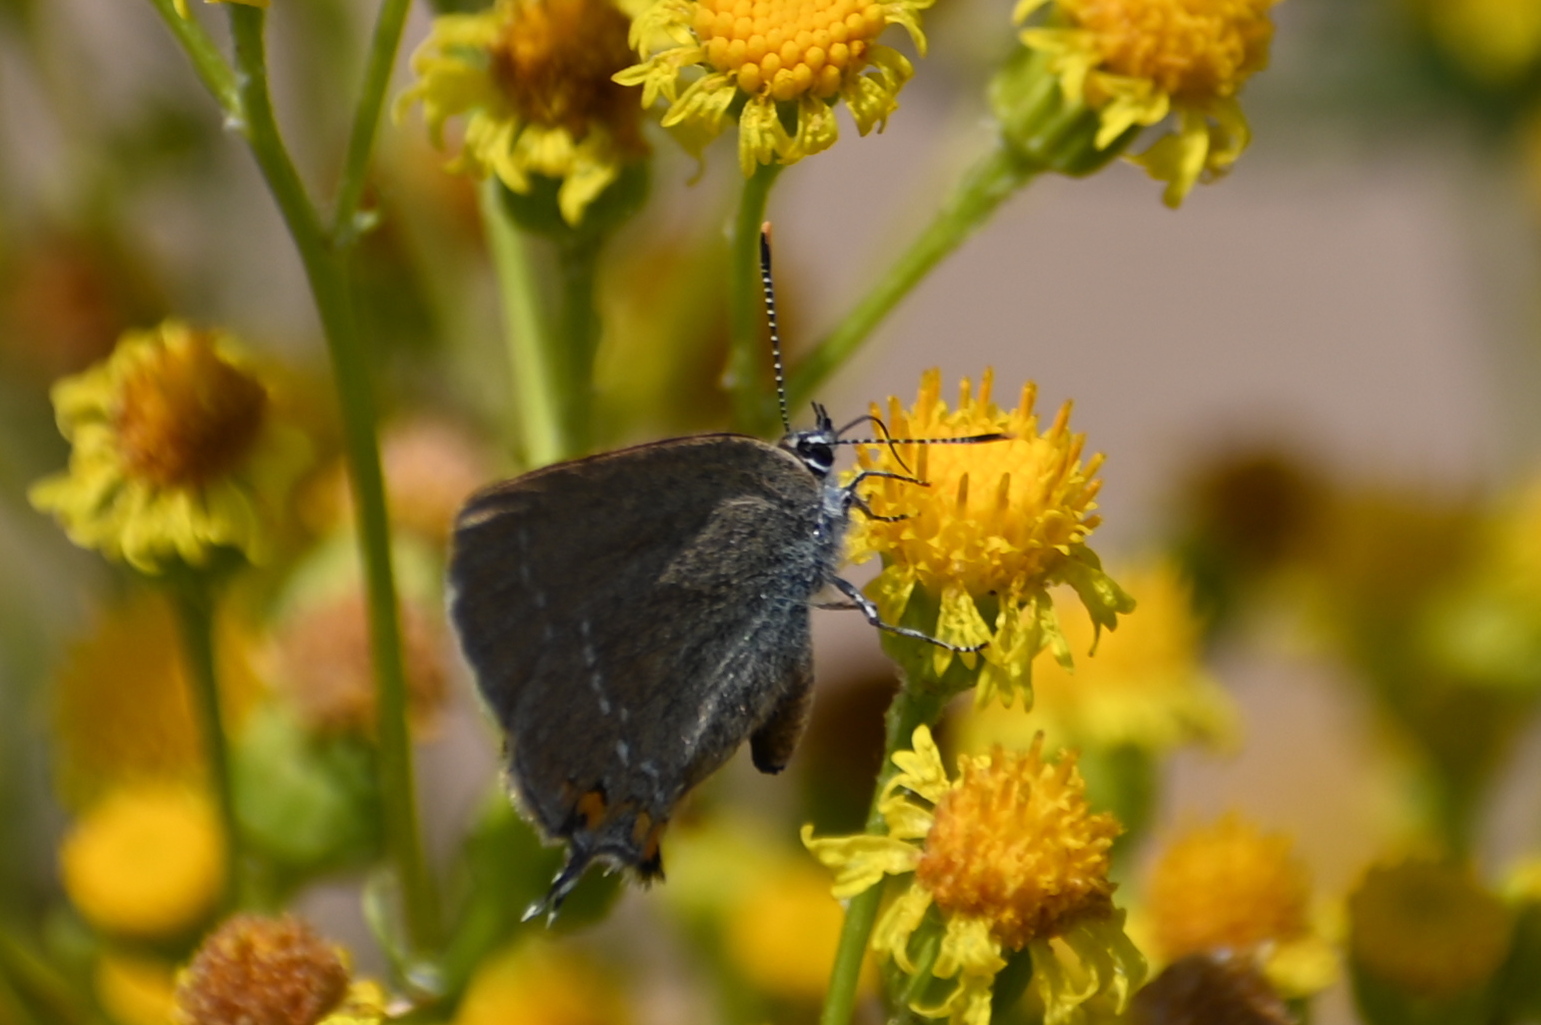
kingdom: Animalia
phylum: Arthropoda
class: Insecta
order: Lepidoptera
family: Lycaenidae
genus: Strymon
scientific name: Strymon acaciae
